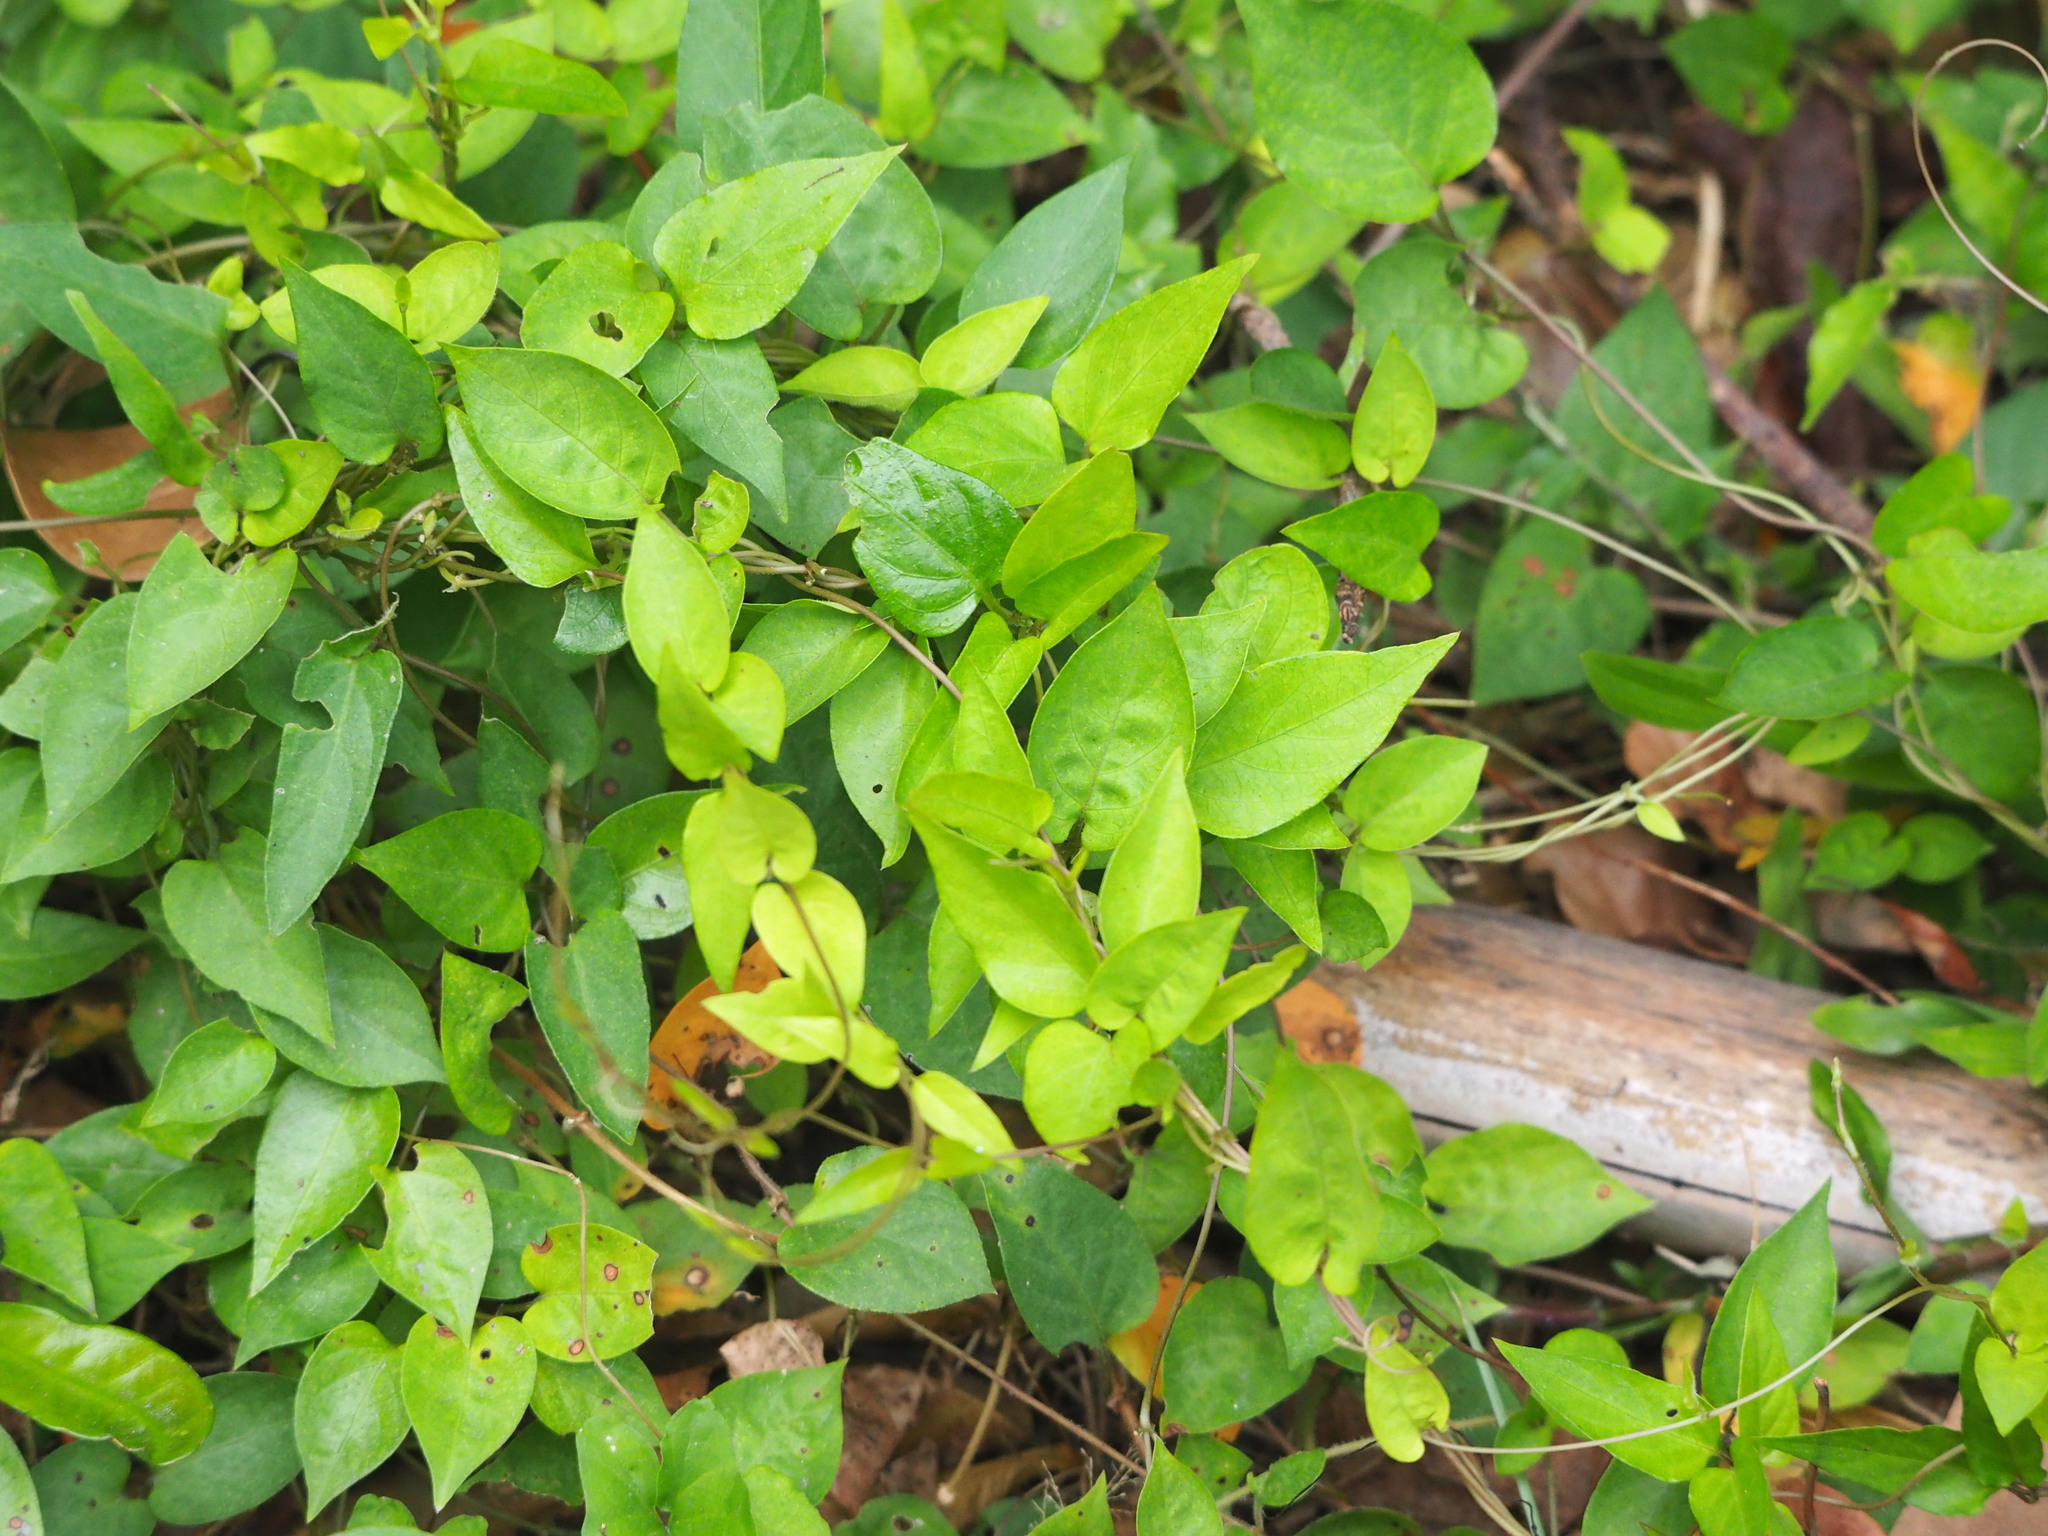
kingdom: Plantae
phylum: Tracheophyta
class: Magnoliopsida
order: Gentianales
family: Rubiaceae
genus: Paederia
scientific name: Paederia foetida
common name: Stinkvine
